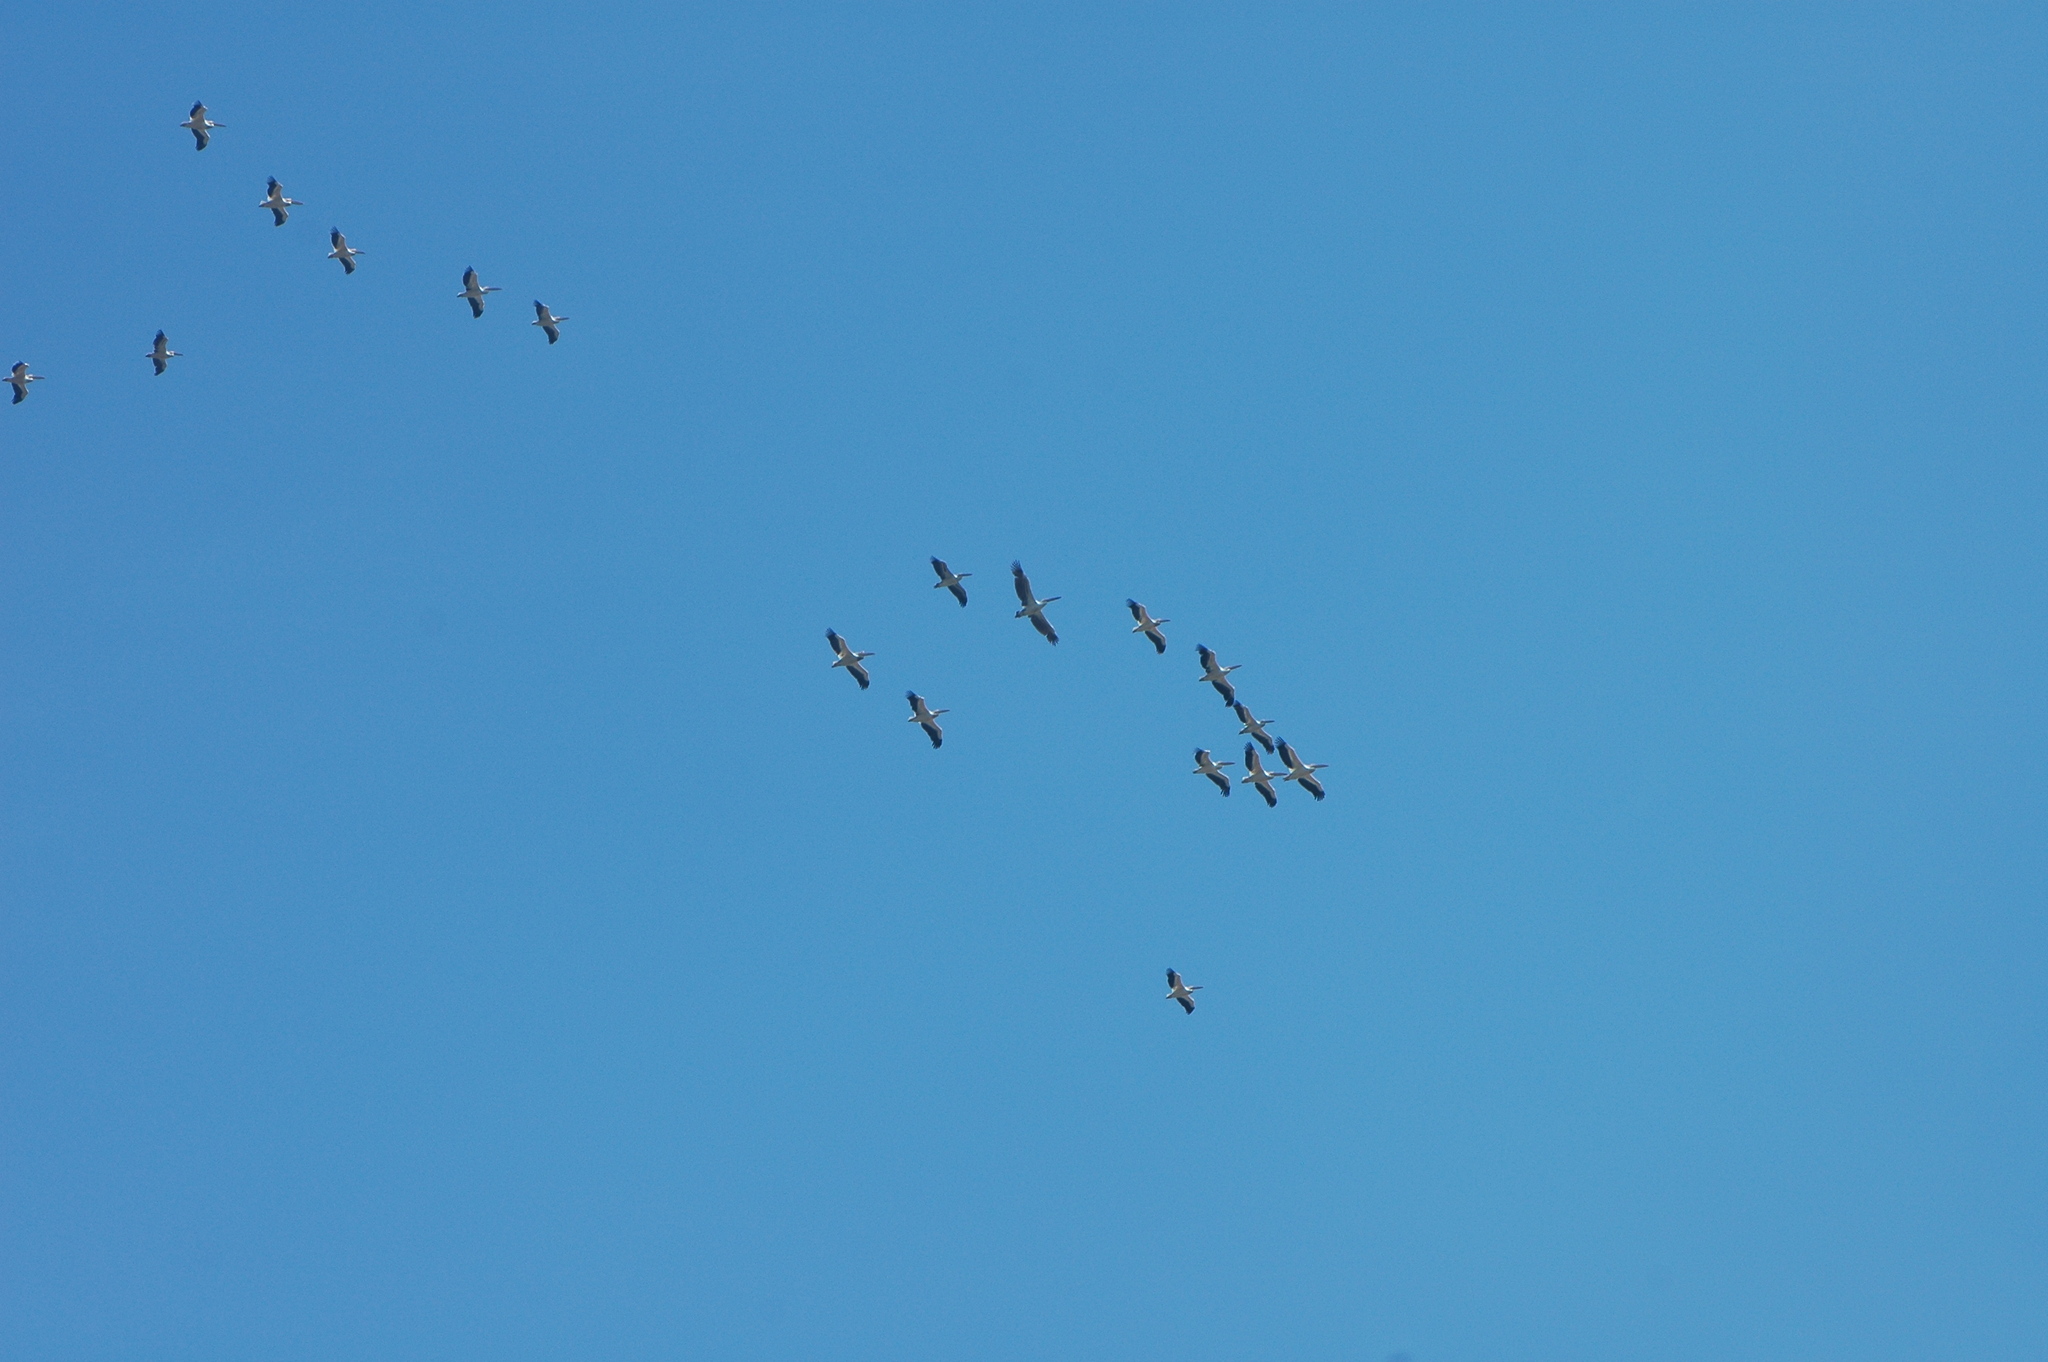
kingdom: Animalia
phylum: Chordata
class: Aves
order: Pelecaniformes
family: Pelecanidae
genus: Pelecanus
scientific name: Pelecanus onocrotalus
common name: Great white pelican
